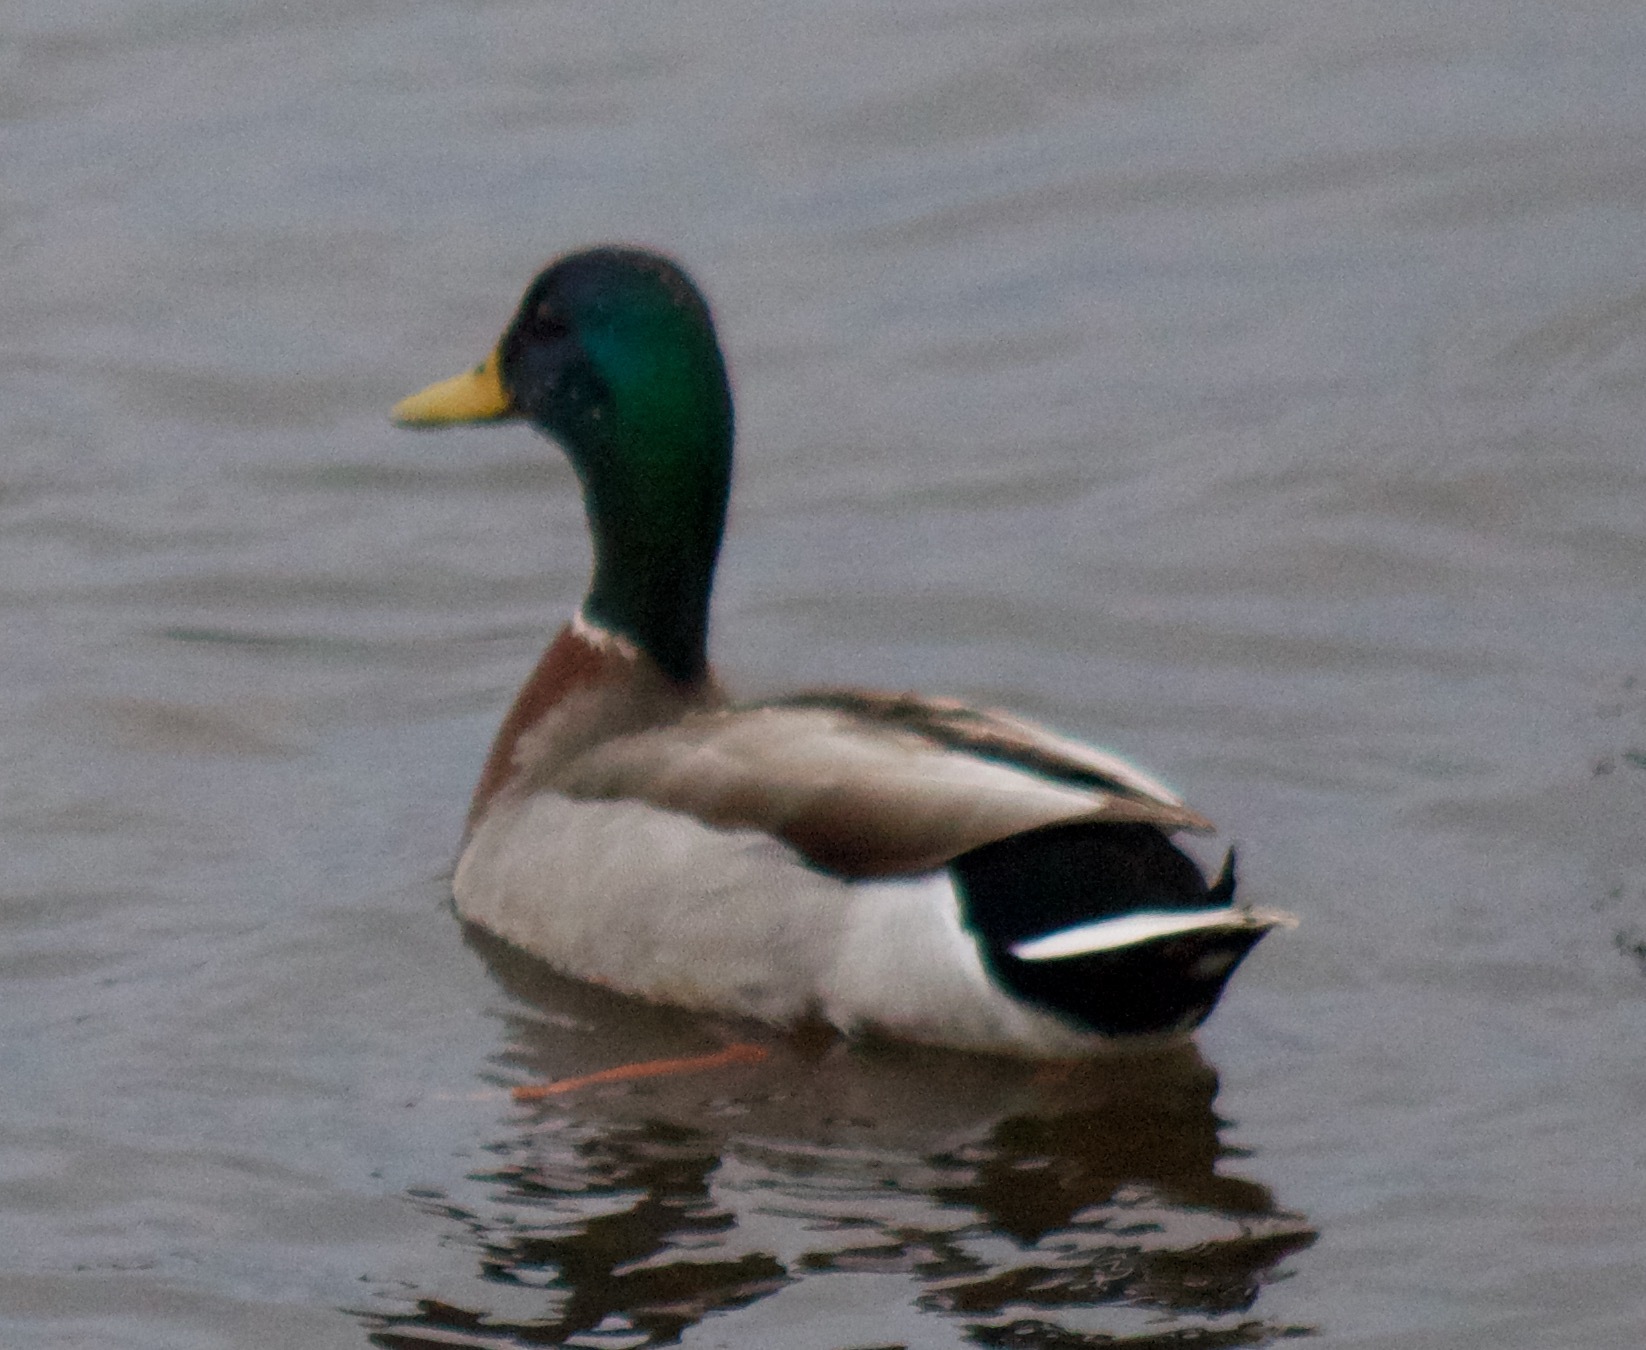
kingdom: Animalia
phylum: Chordata
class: Aves
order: Anseriformes
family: Anatidae
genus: Anas
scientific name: Anas platyrhynchos
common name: Mallard
